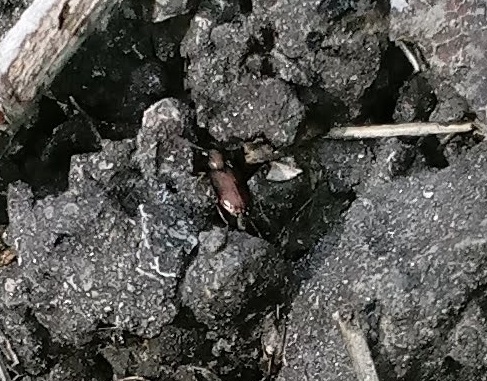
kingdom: Animalia
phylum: Arthropoda
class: Insecta
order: Coleoptera
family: Carabidae
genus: Bembidion
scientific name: Bembidion
